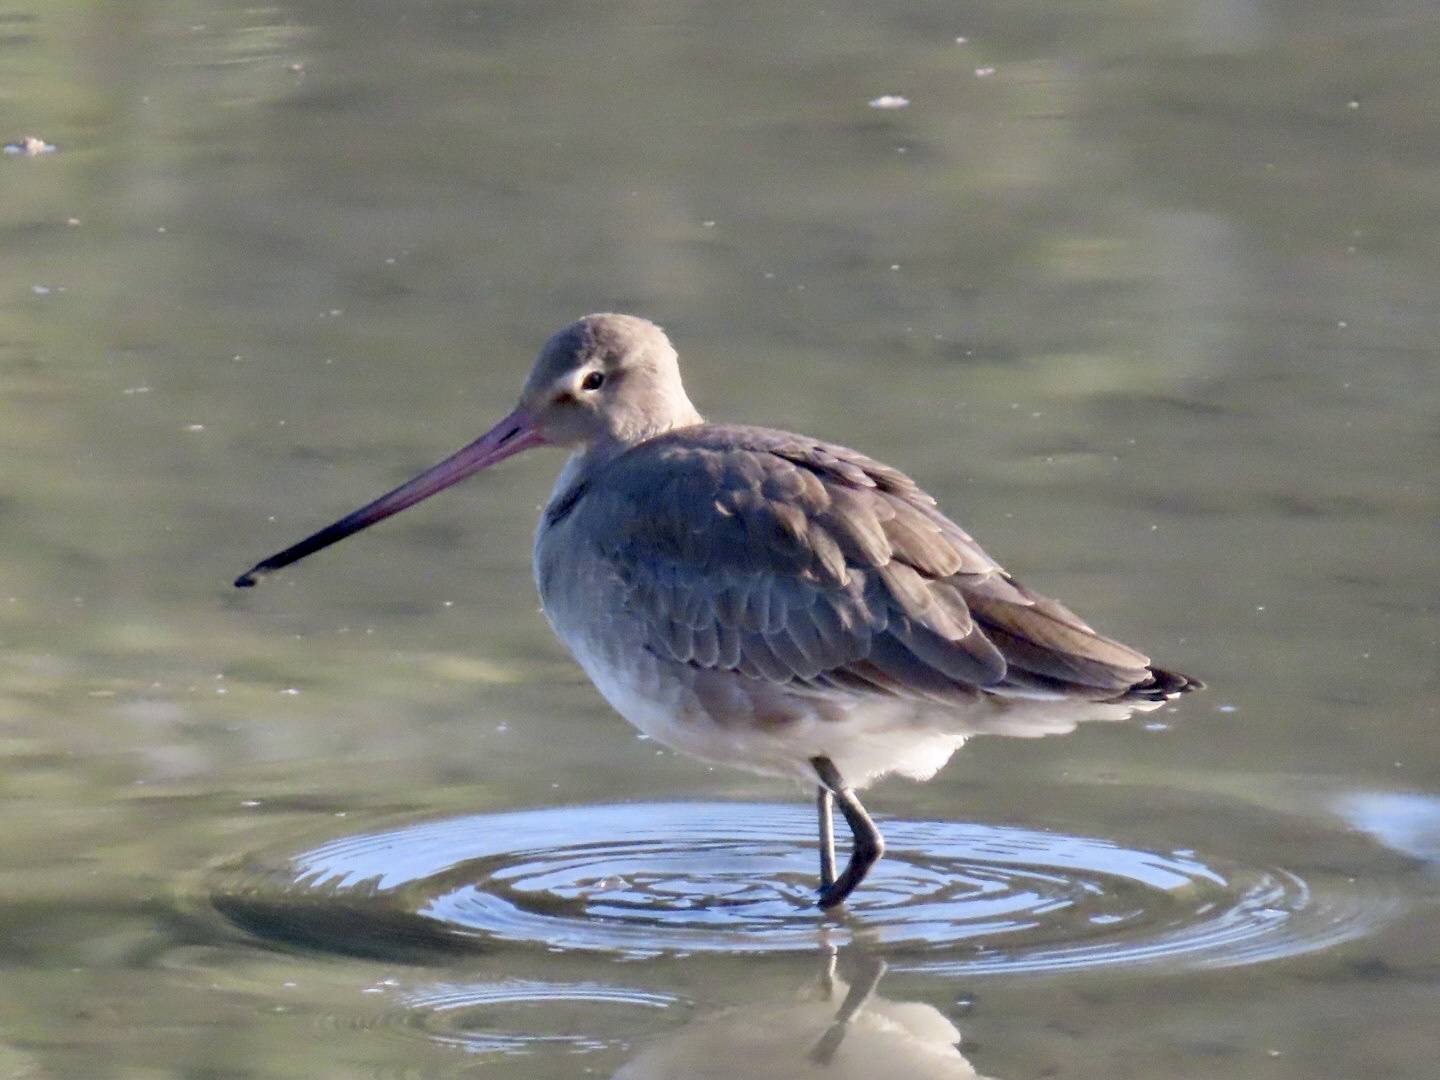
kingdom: Animalia
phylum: Chordata
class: Aves
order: Charadriiformes
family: Scolopacidae
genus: Limosa
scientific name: Limosa limosa
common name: Black-tailed godwit
